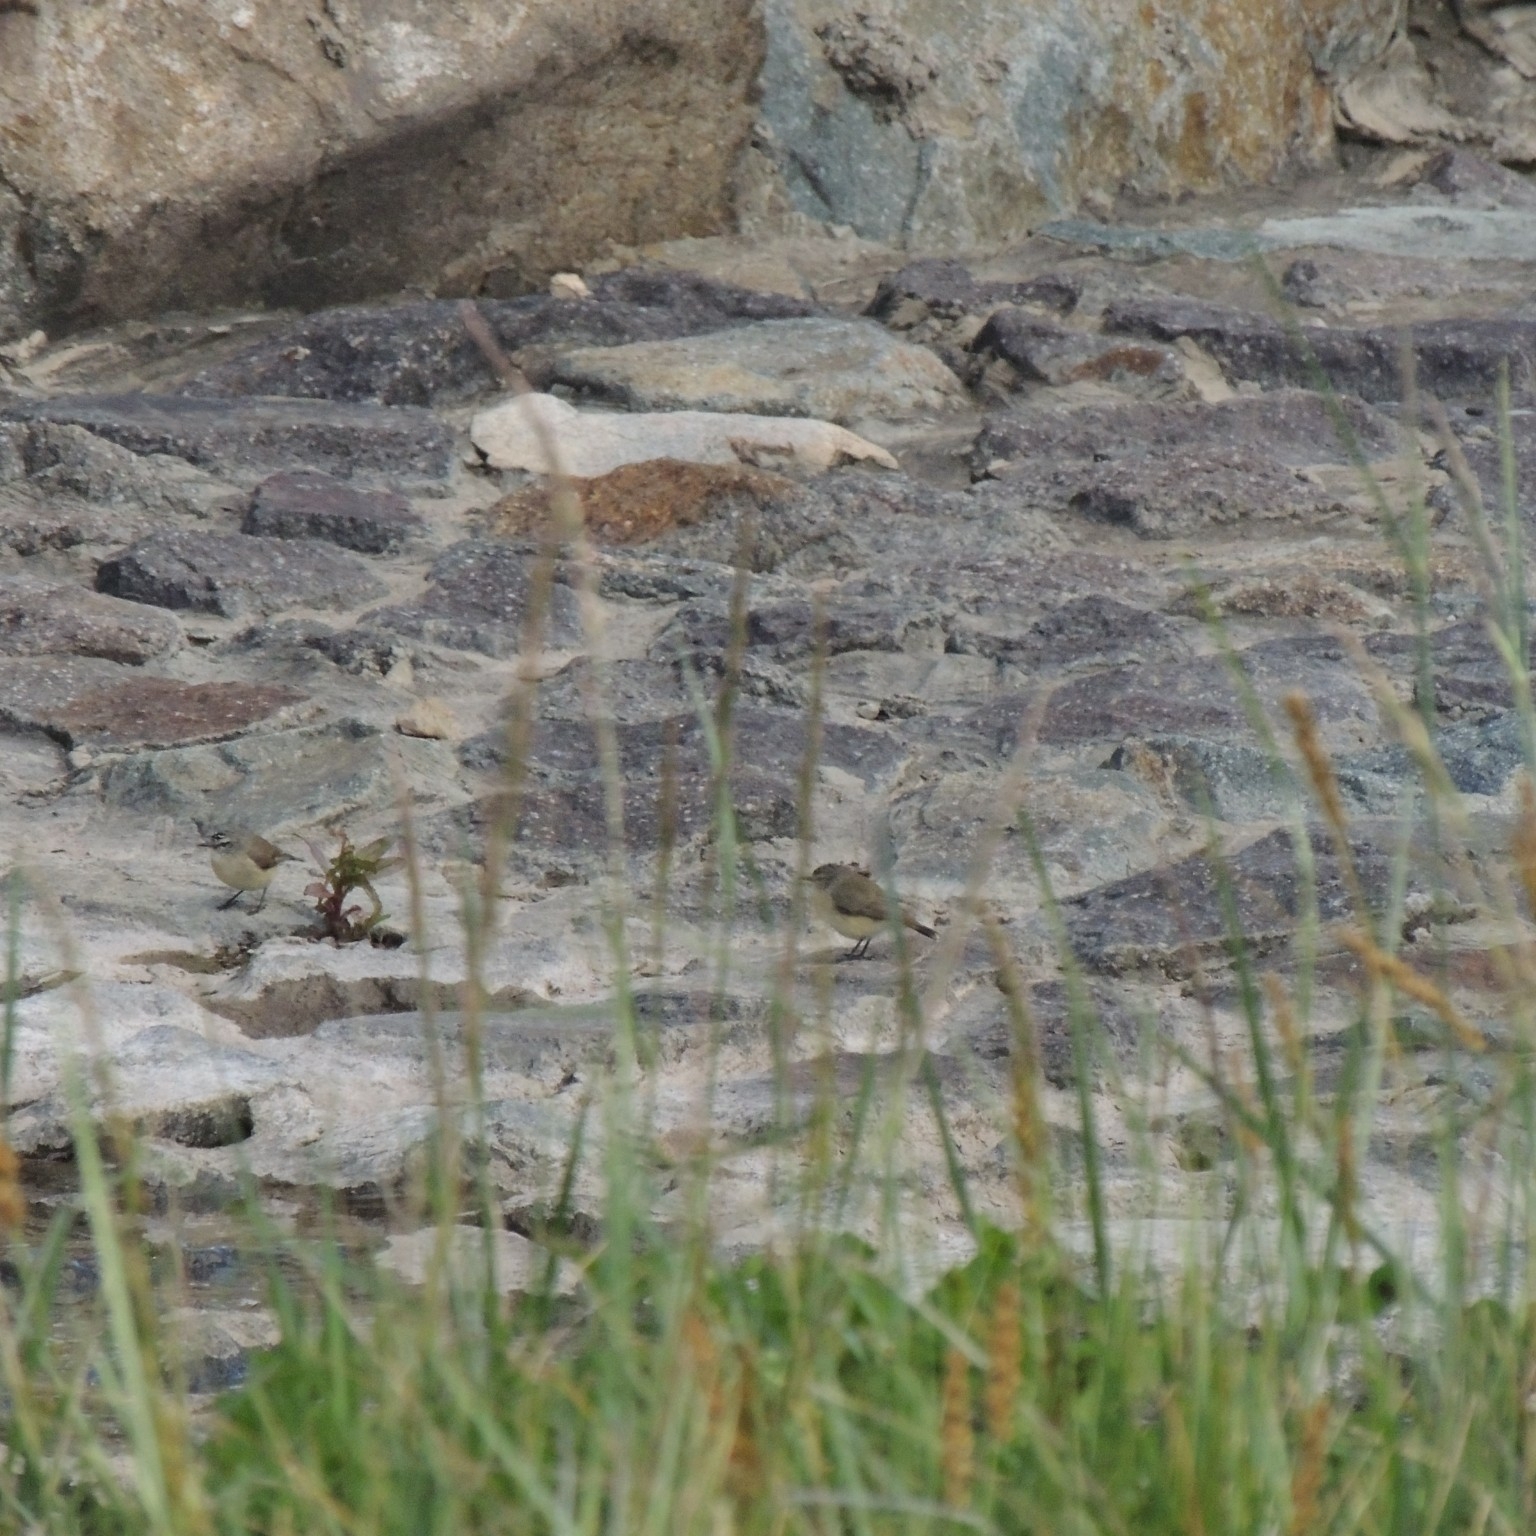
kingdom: Animalia
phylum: Chordata
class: Aves
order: Passeriformes
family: Acanthizidae
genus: Acanthiza
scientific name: Acanthiza chrysorrhoa
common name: Yellow-rumped thornbill
